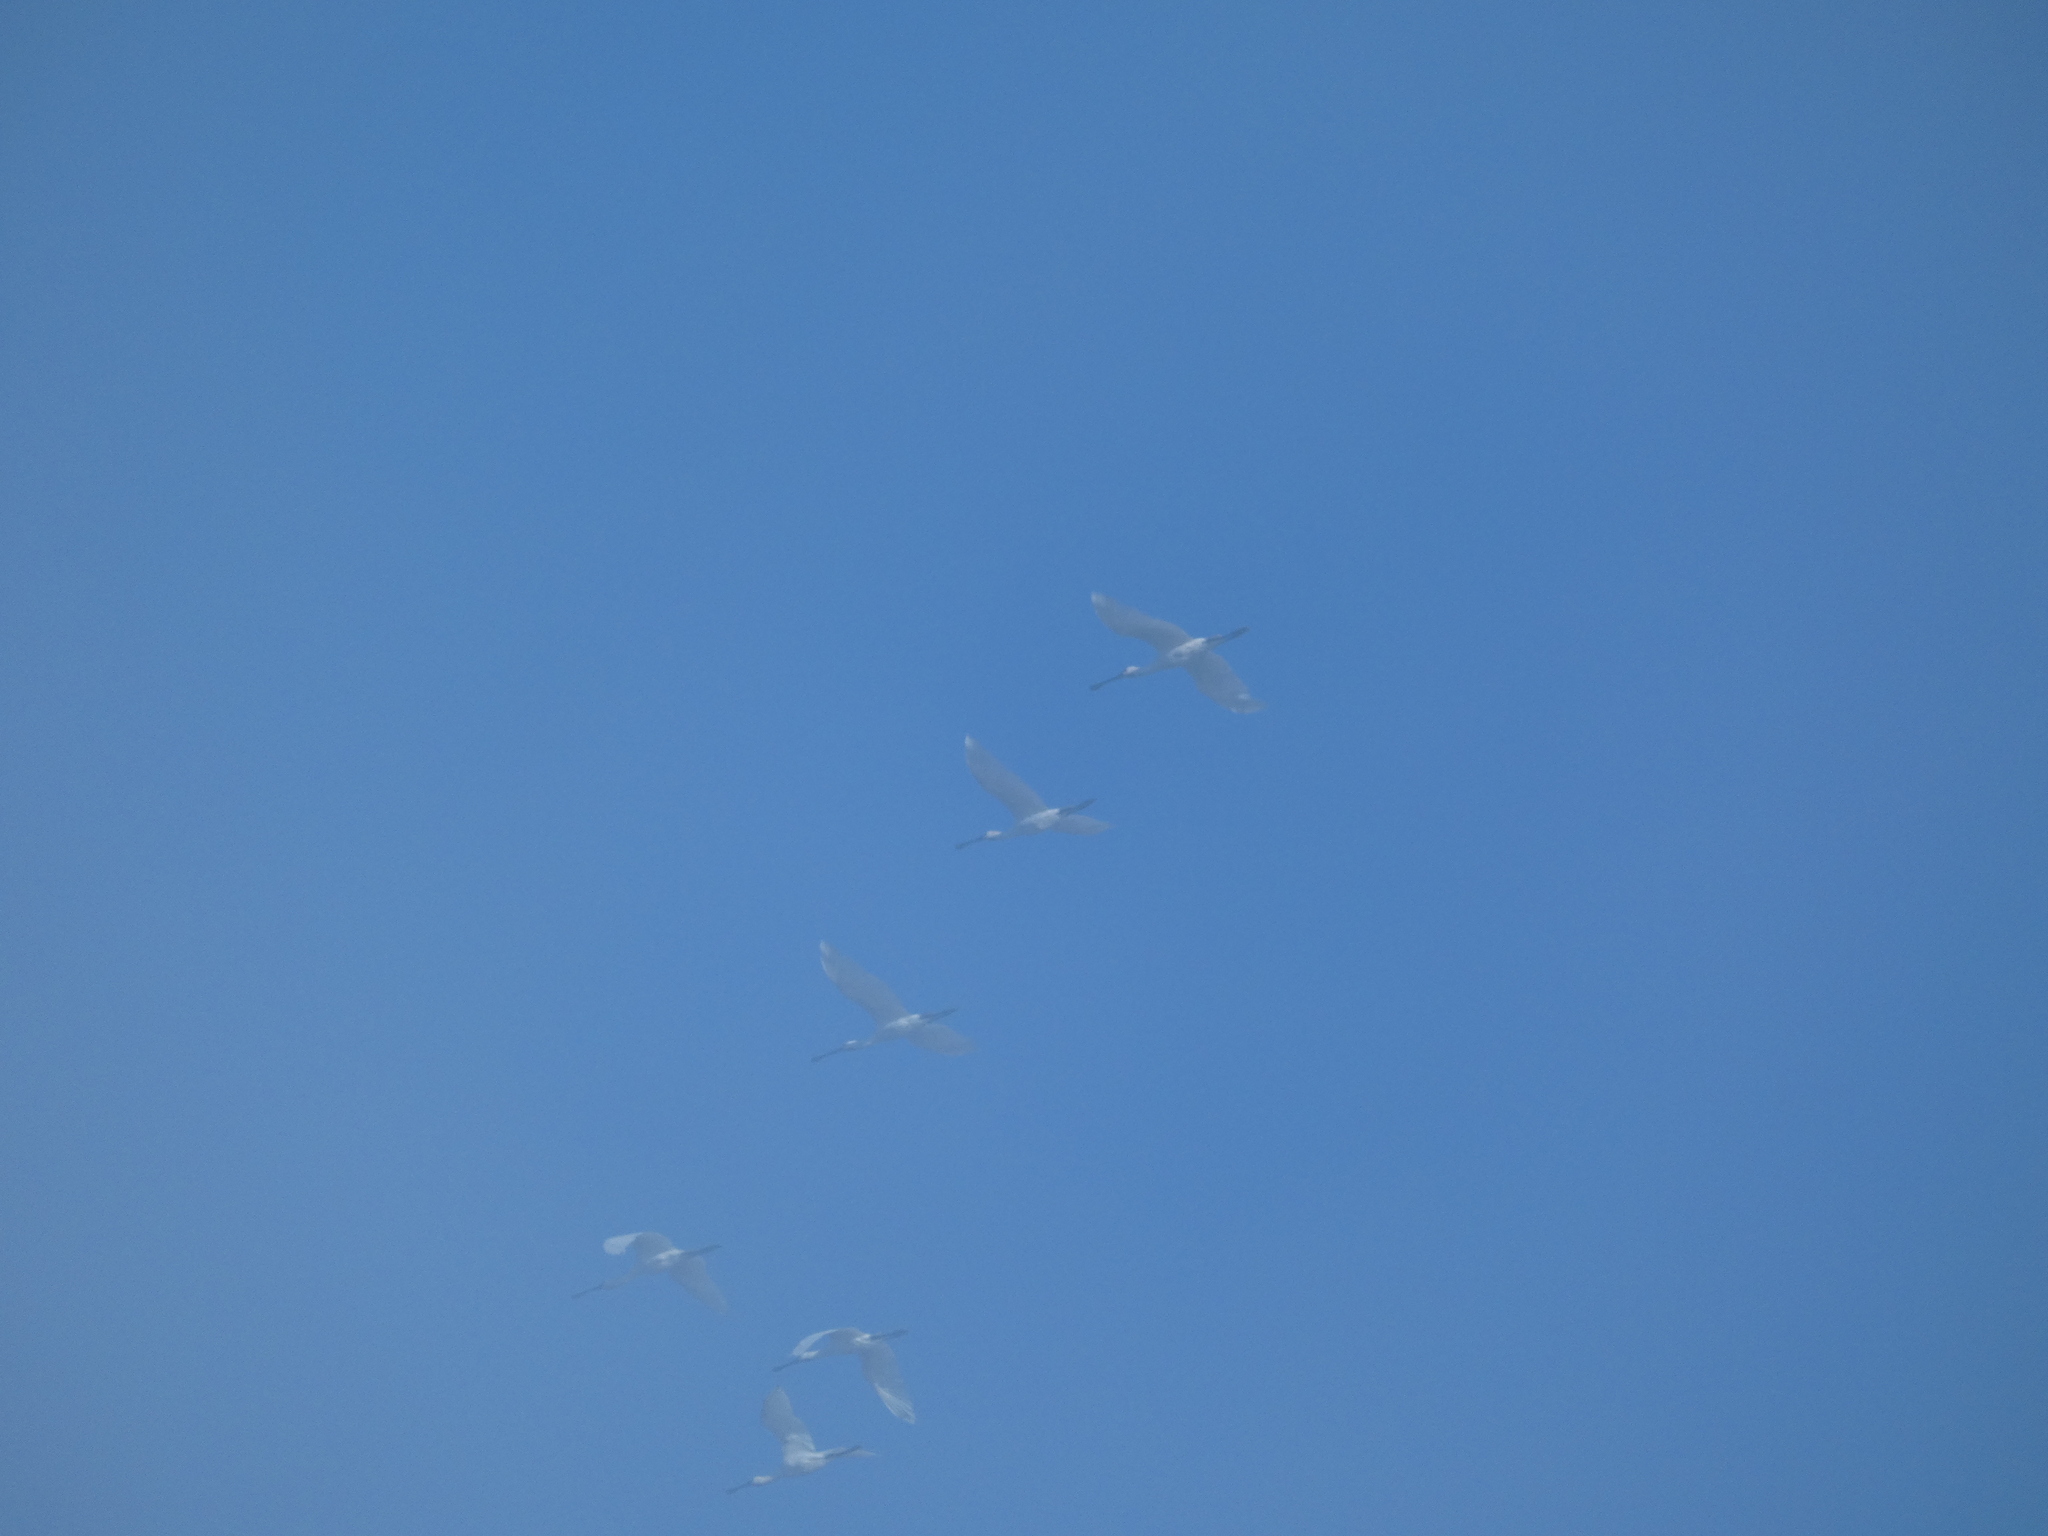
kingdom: Animalia
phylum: Chordata
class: Aves
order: Pelecaniformes
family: Threskiornithidae
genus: Platalea
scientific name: Platalea leucorodia
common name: Eurasian spoonbill
